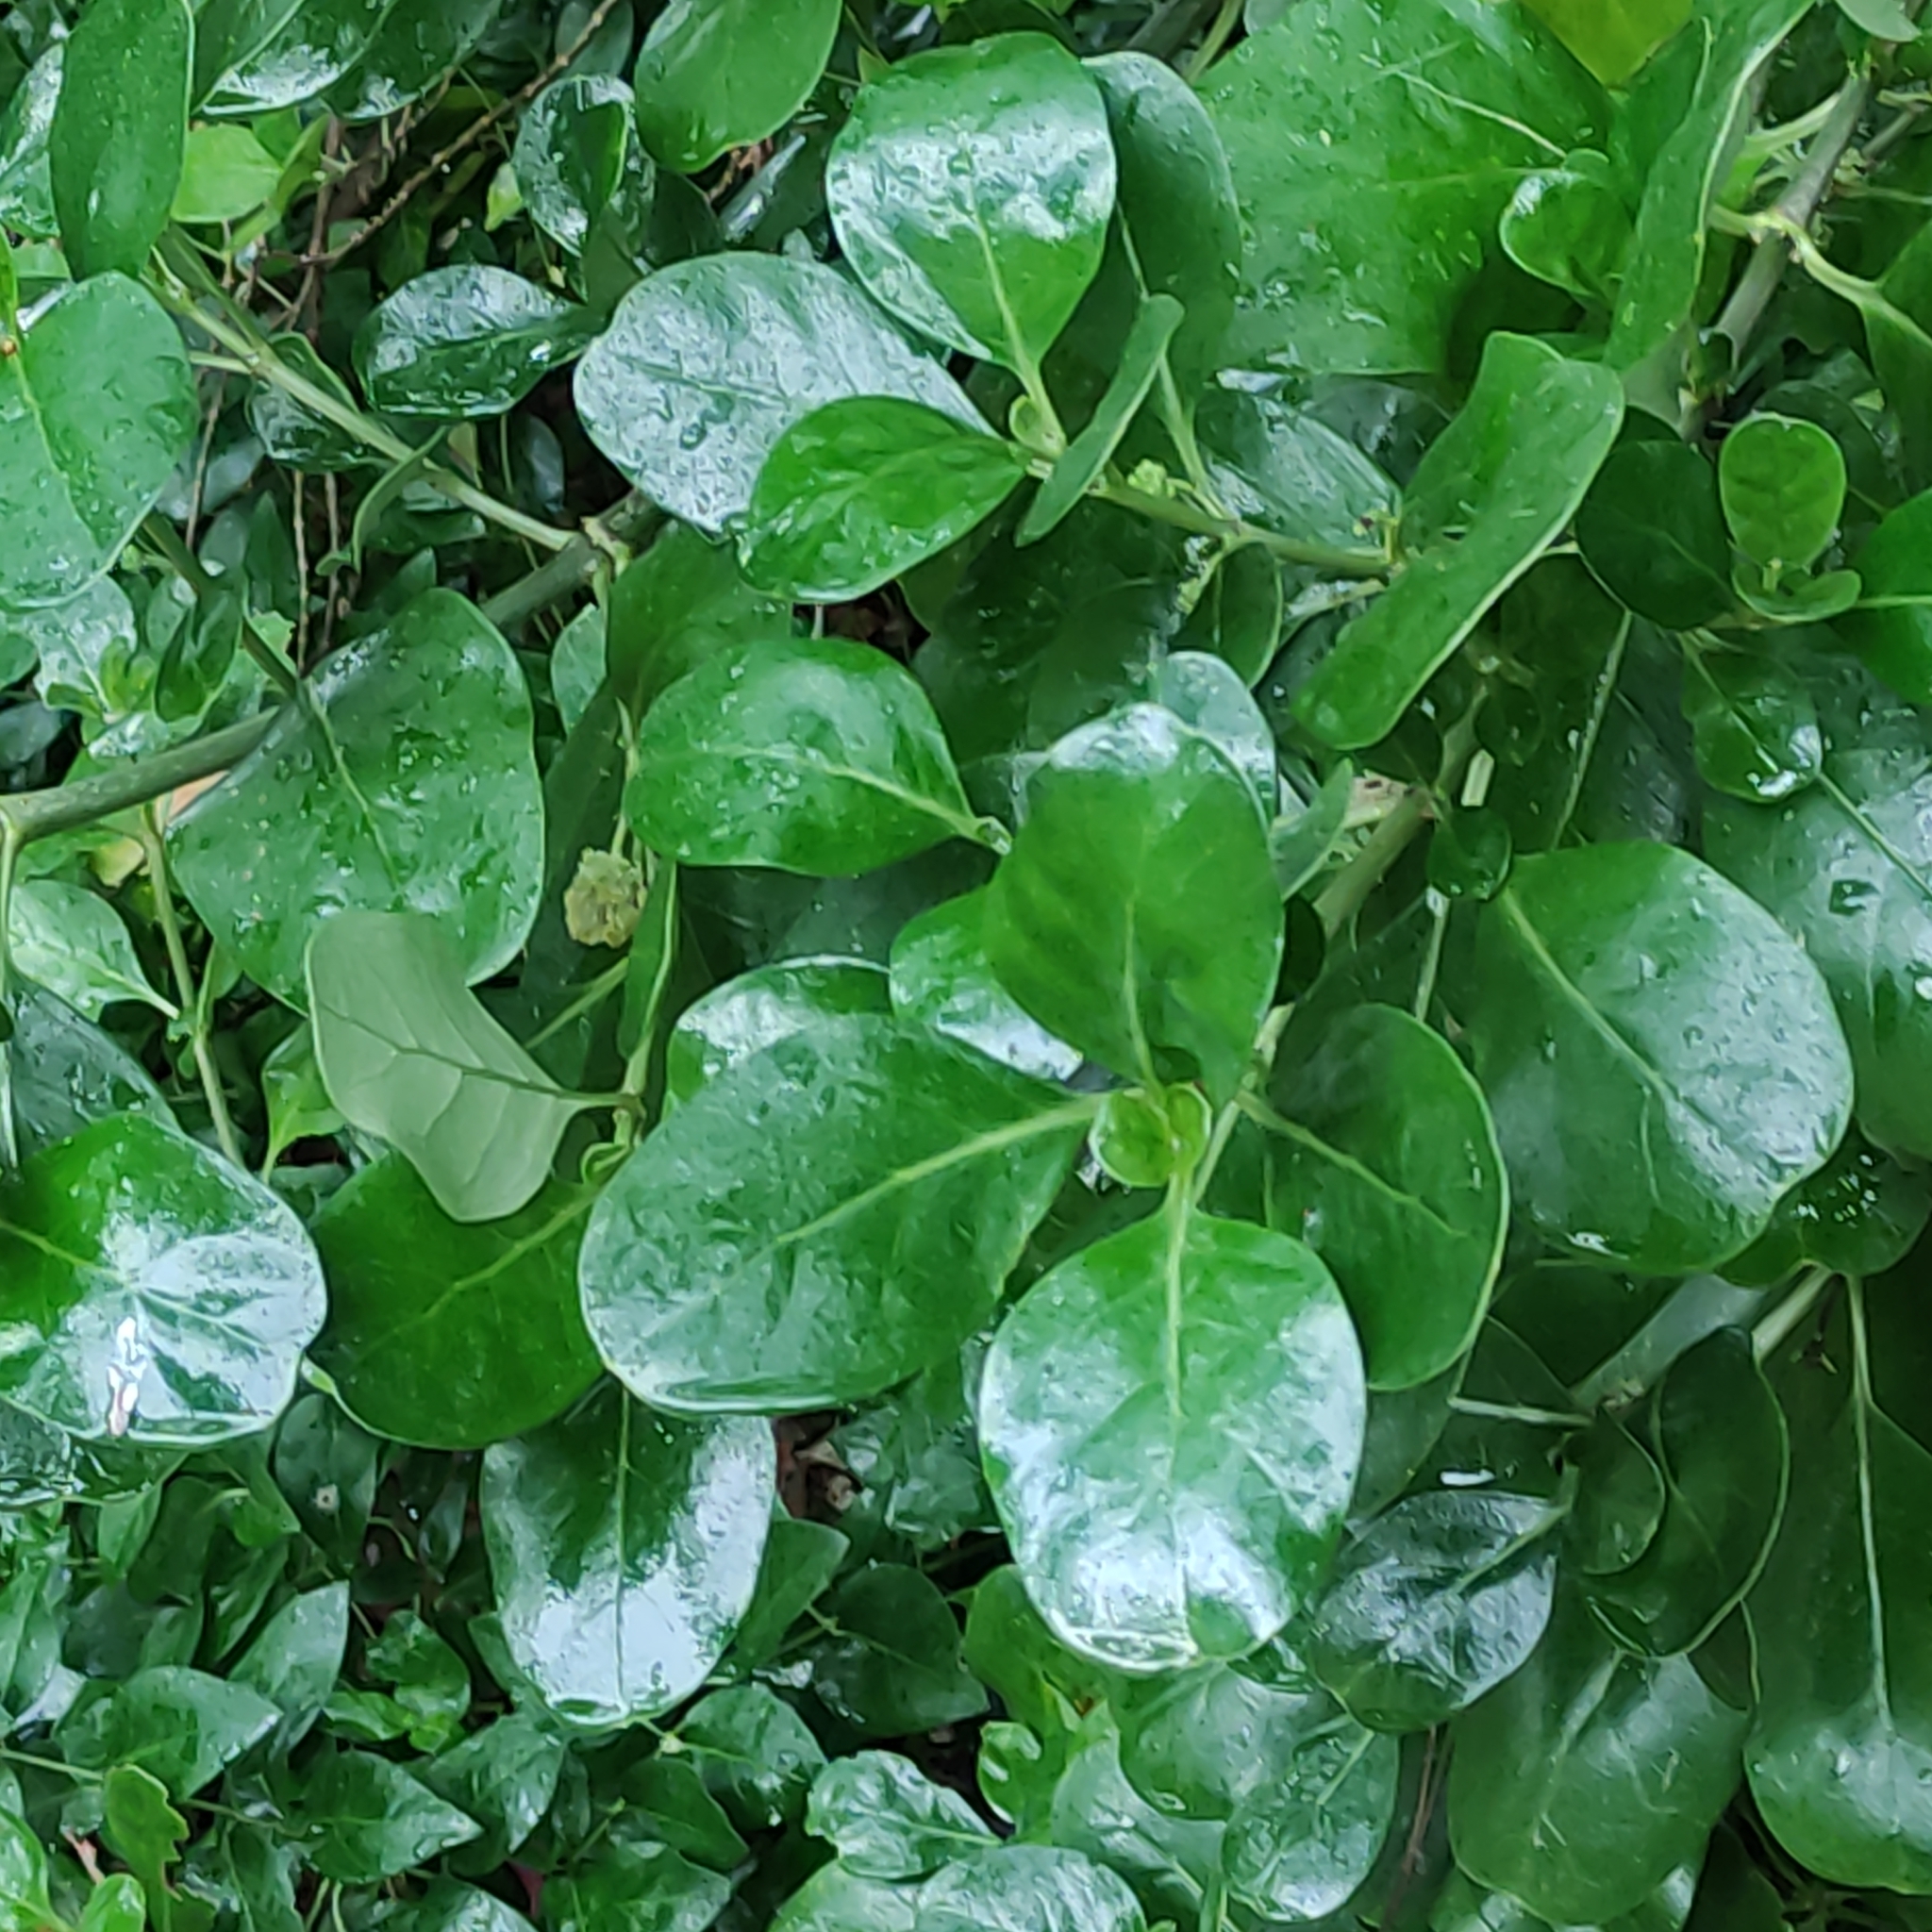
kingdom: Plantae
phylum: Tracheophyta
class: Magnoliopsida
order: Gentianales
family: Rubiaceae
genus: Coprosma
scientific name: Coprosma repens
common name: Tree bedstraw
